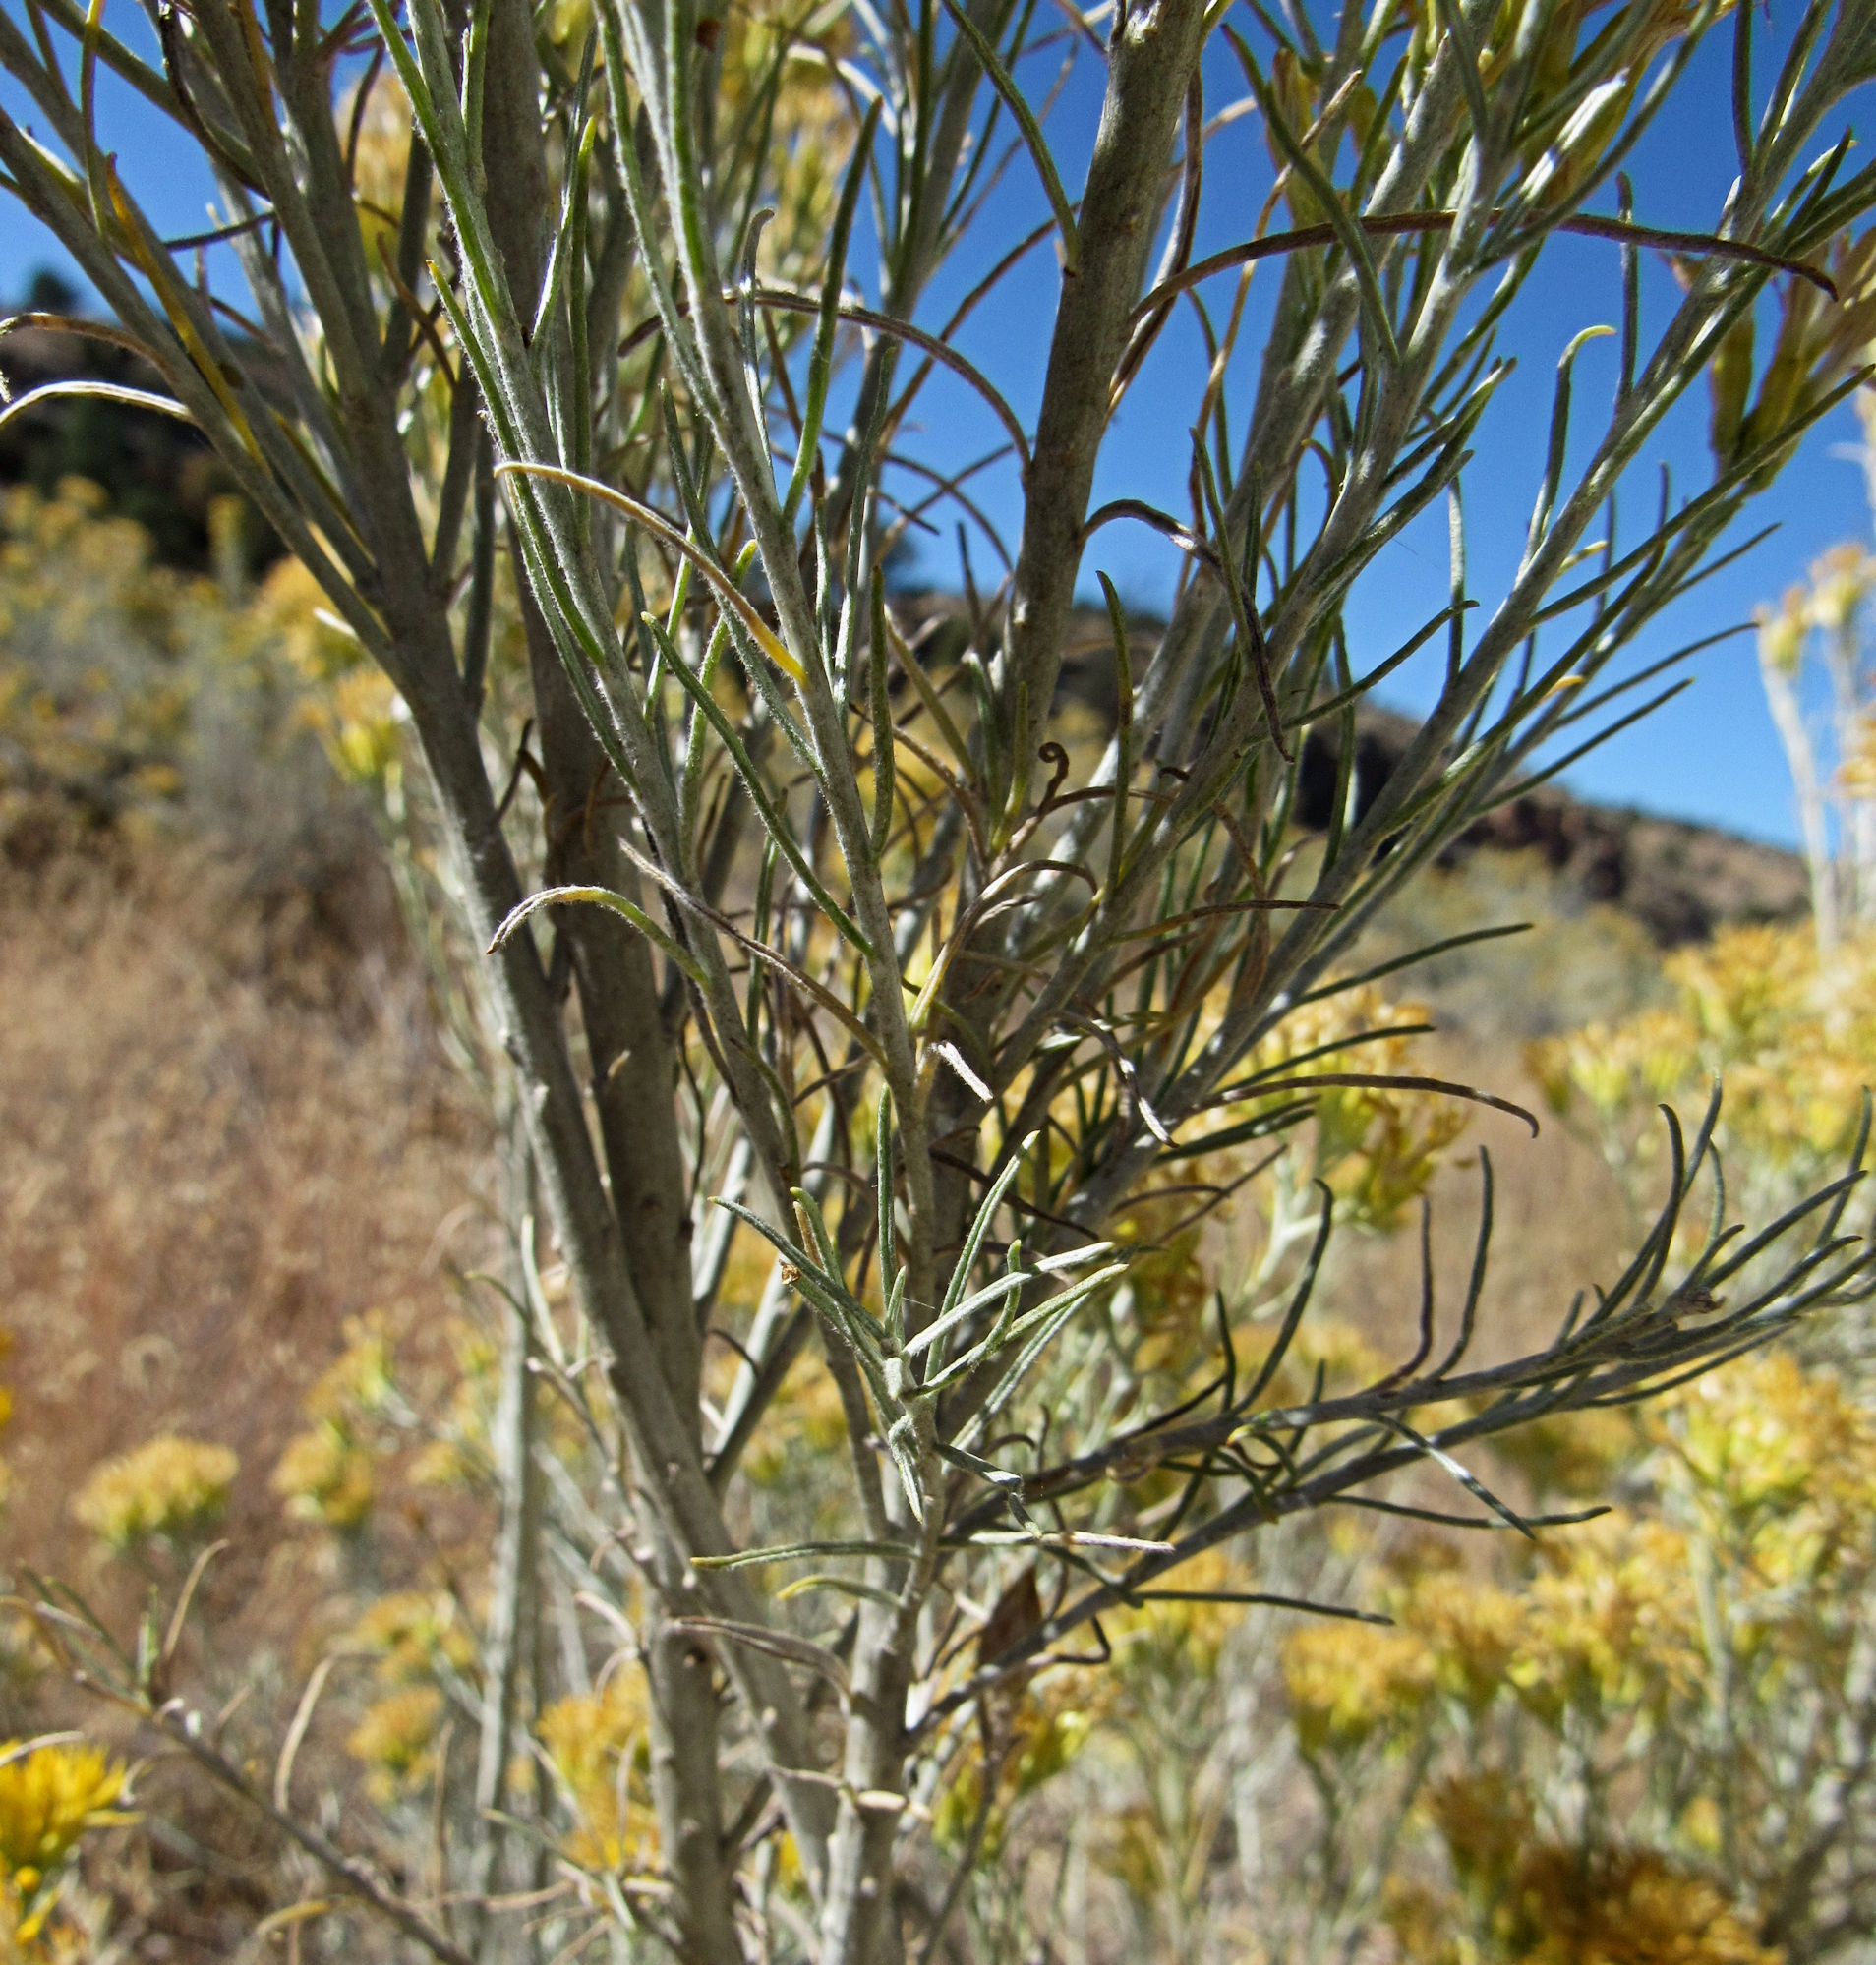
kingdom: Plantae
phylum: Tracheophyta
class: Magnoliopsida
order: Asterales
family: Asteraceae
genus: Ericameria
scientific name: Ericameria nauseosa
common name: Rubber rabbitbrush
